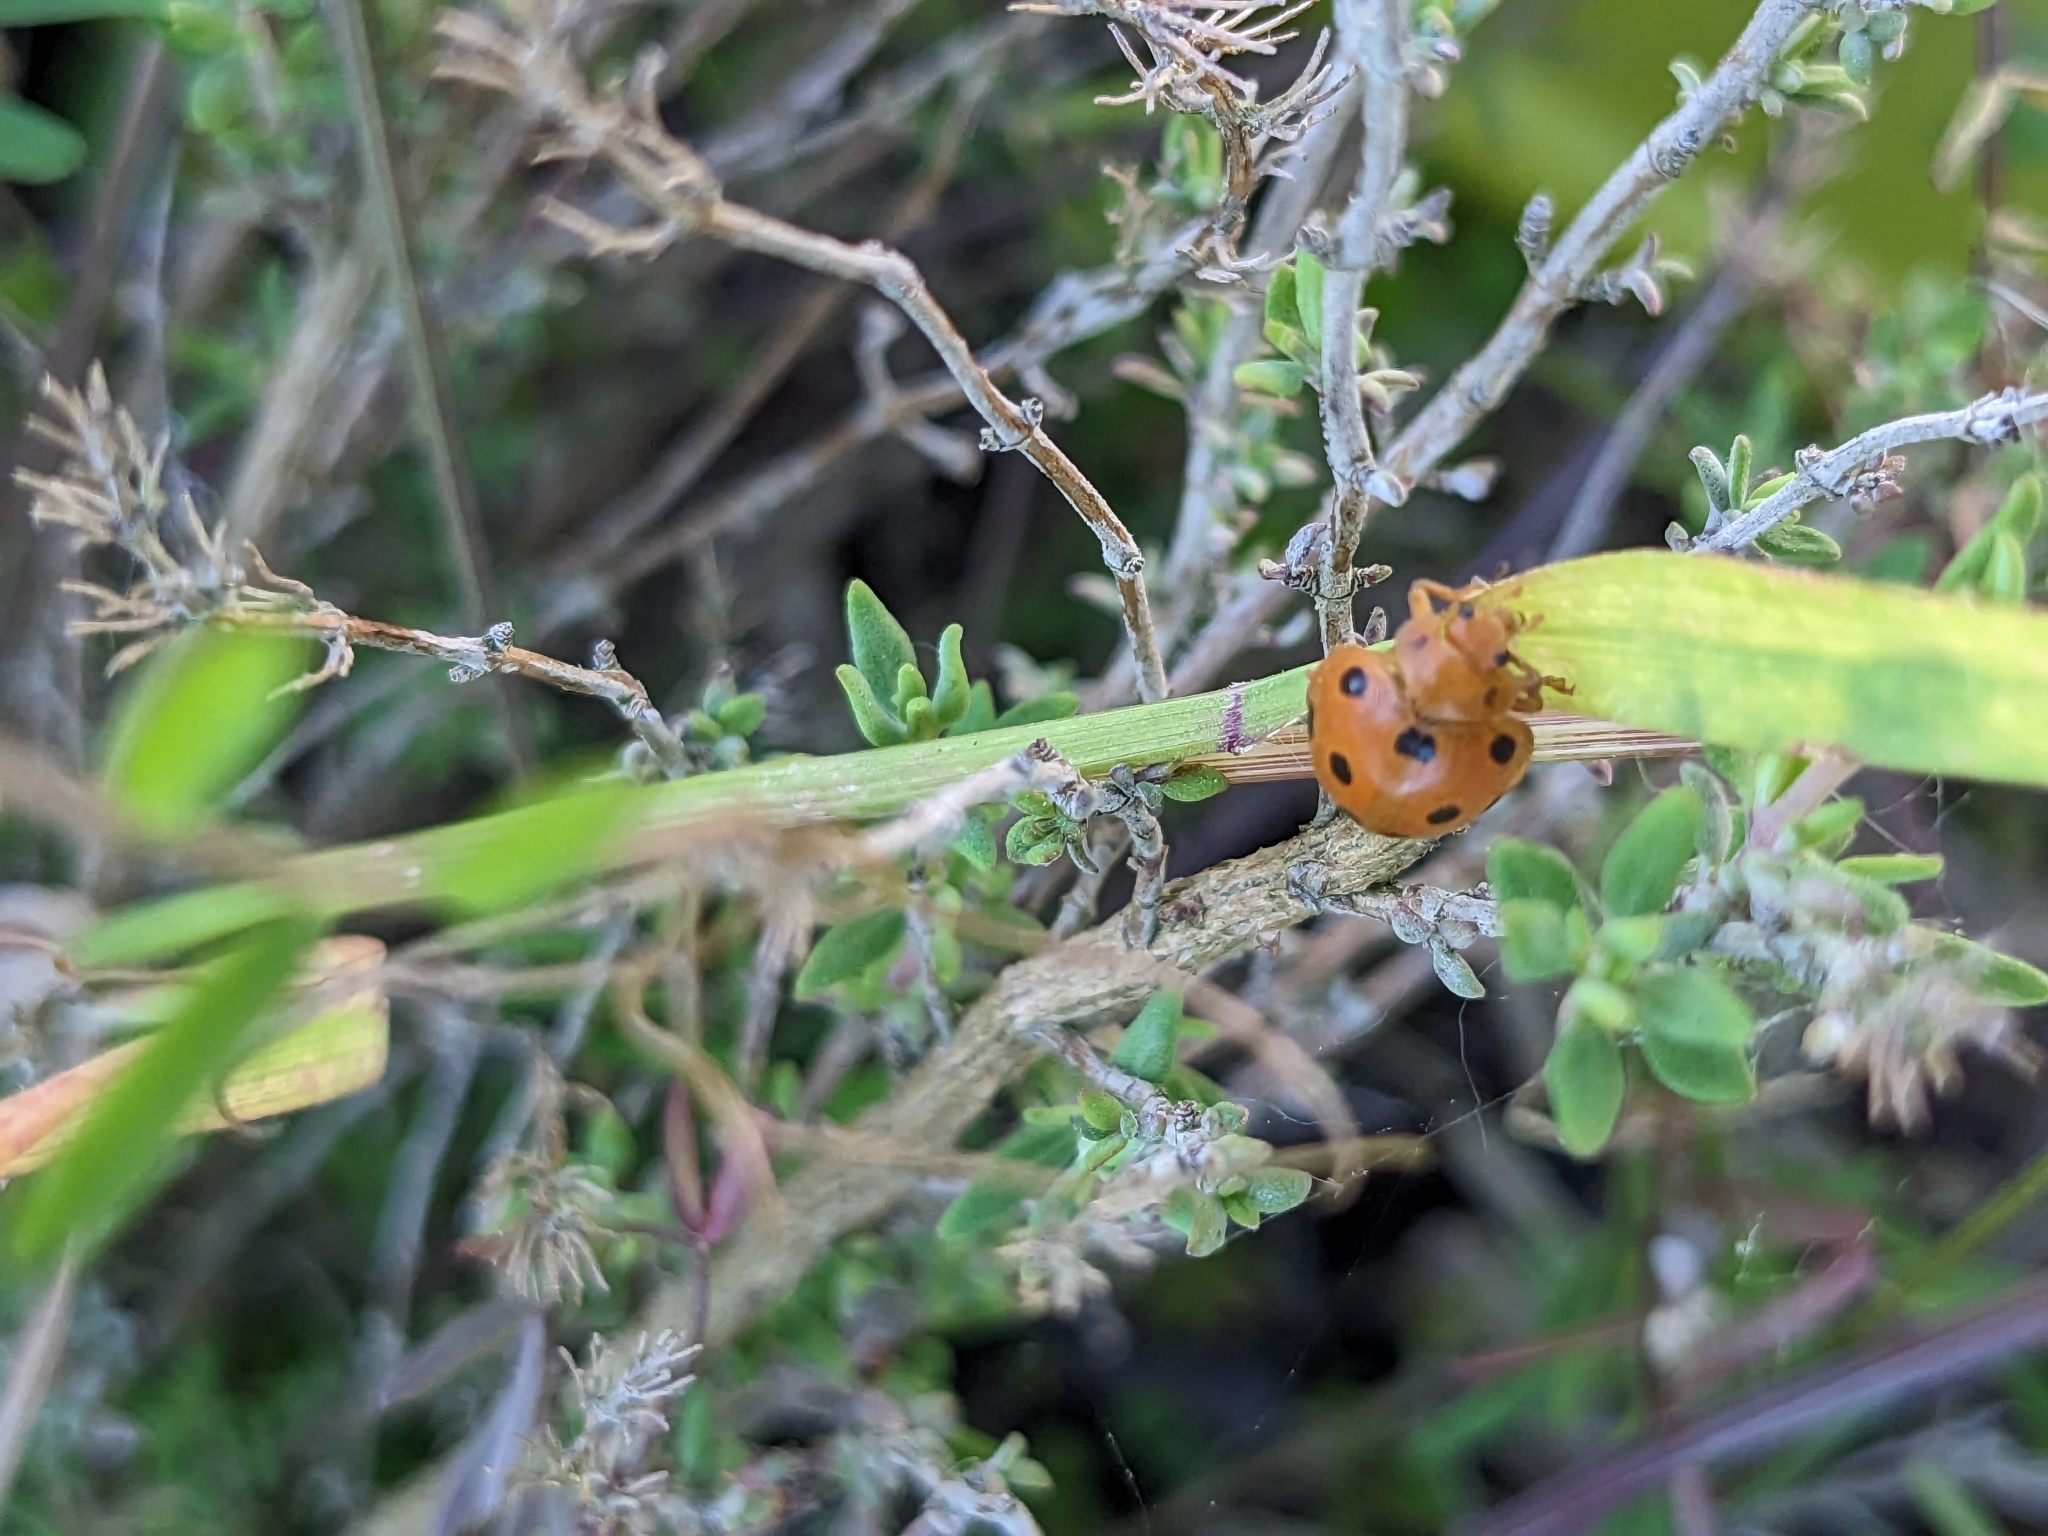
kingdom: Animalia
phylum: Arthropoda
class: Insecta
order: Coleoptera
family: Coccinellidae
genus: Henosepilachna
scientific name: Henosepilachna argus
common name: Bryony ladybird
